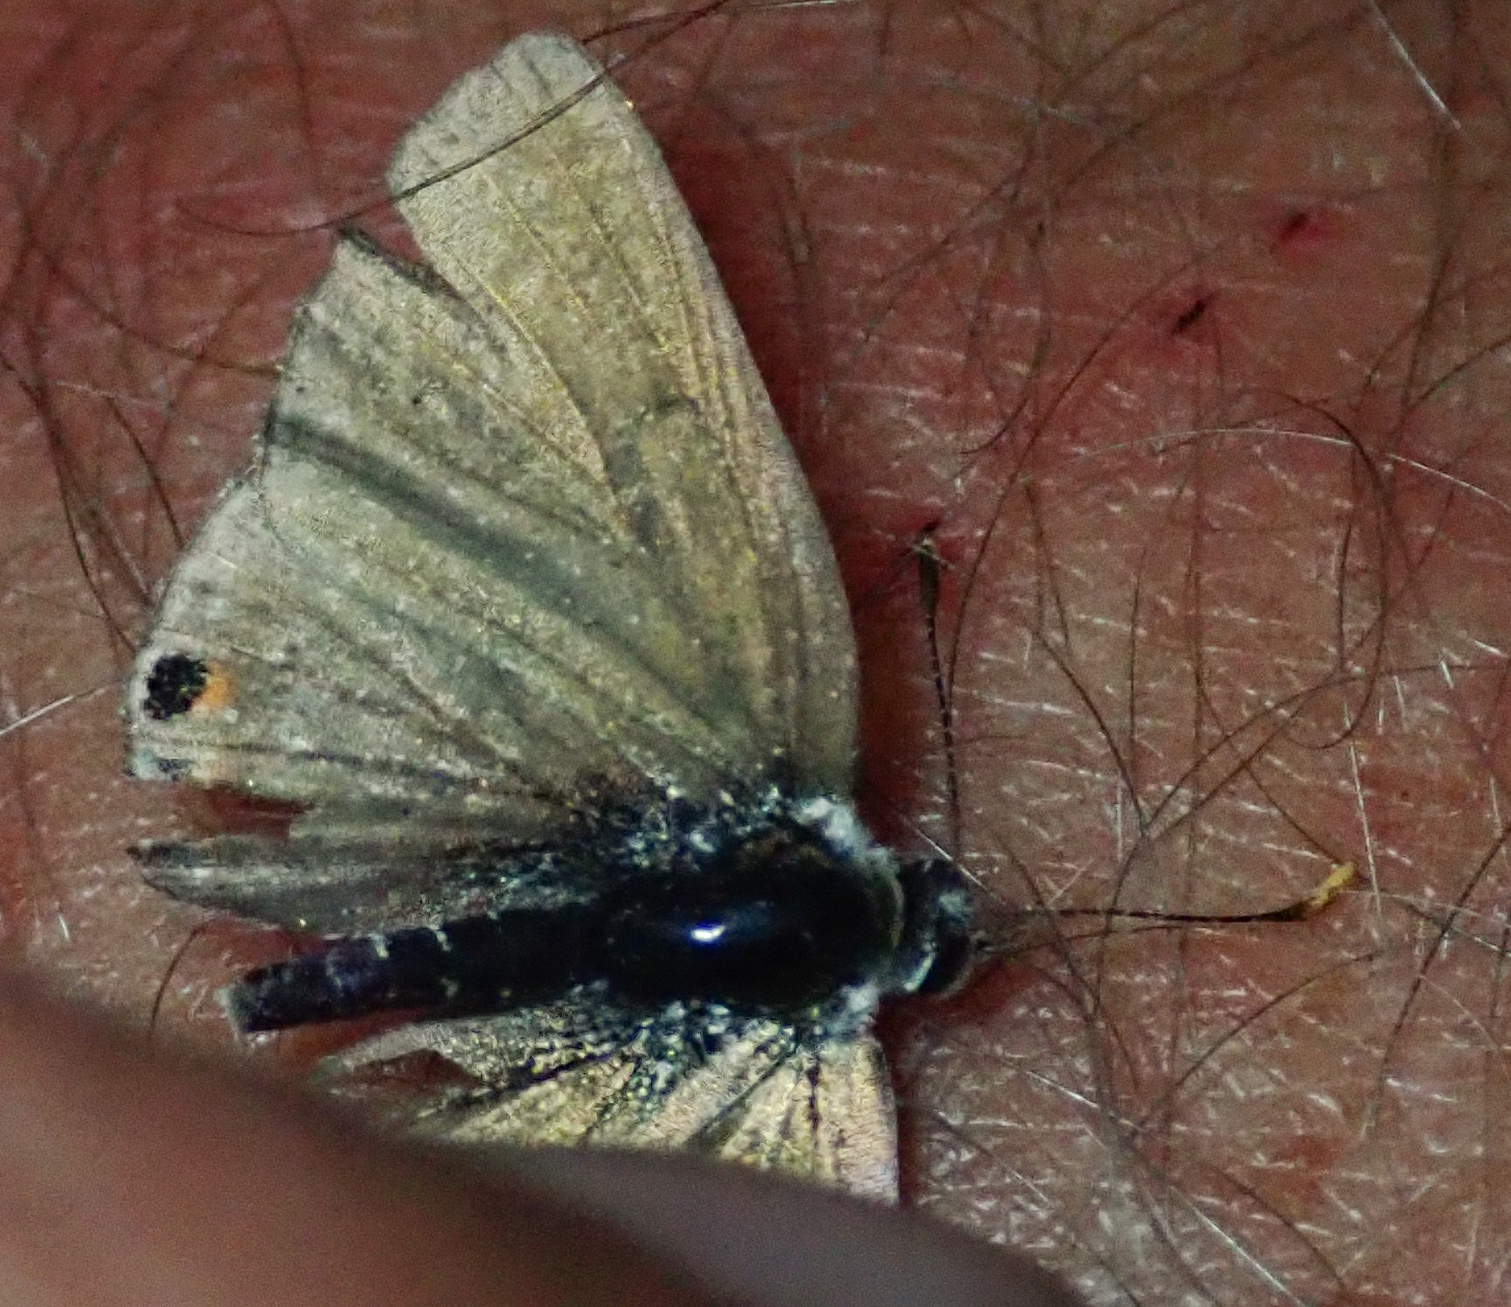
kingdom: Animalia
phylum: Arthropoda
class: Insecta
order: Lepidoptera
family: Lycaenidae
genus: Anthene
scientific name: Anthene amarah
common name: Black-striped hairtail
